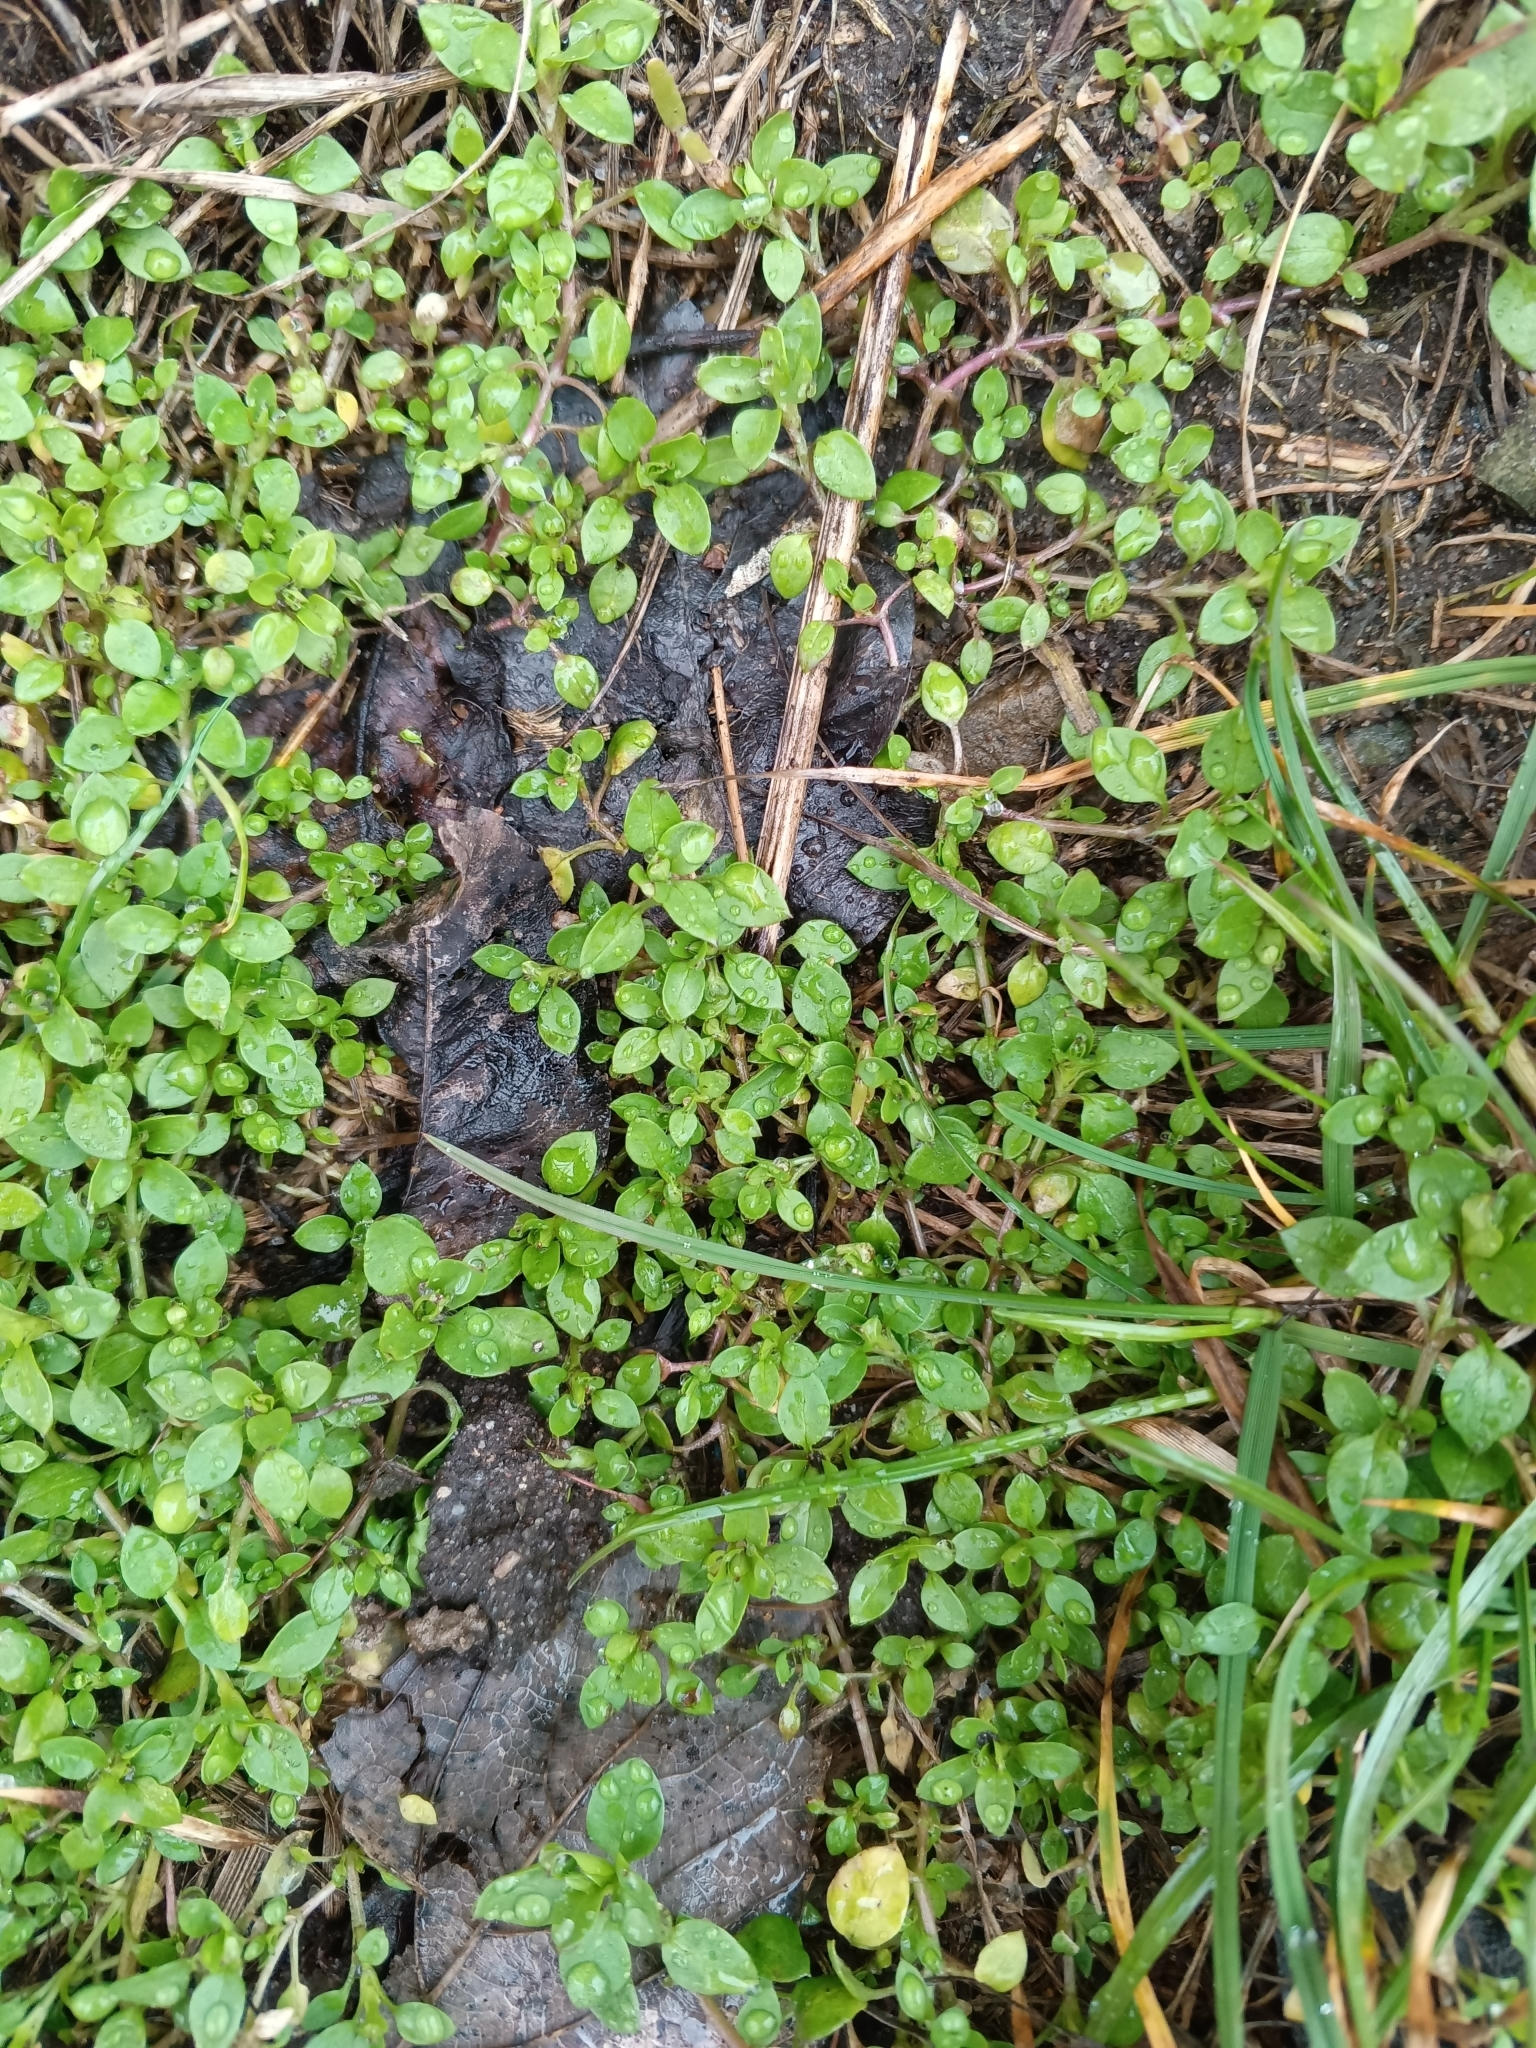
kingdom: Plantae
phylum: Tracheophyta
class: Magnoliopsida
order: Caryophyllales
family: Caryophyllaceae
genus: Stellaria
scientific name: Stellaria media
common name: Common chickweed
